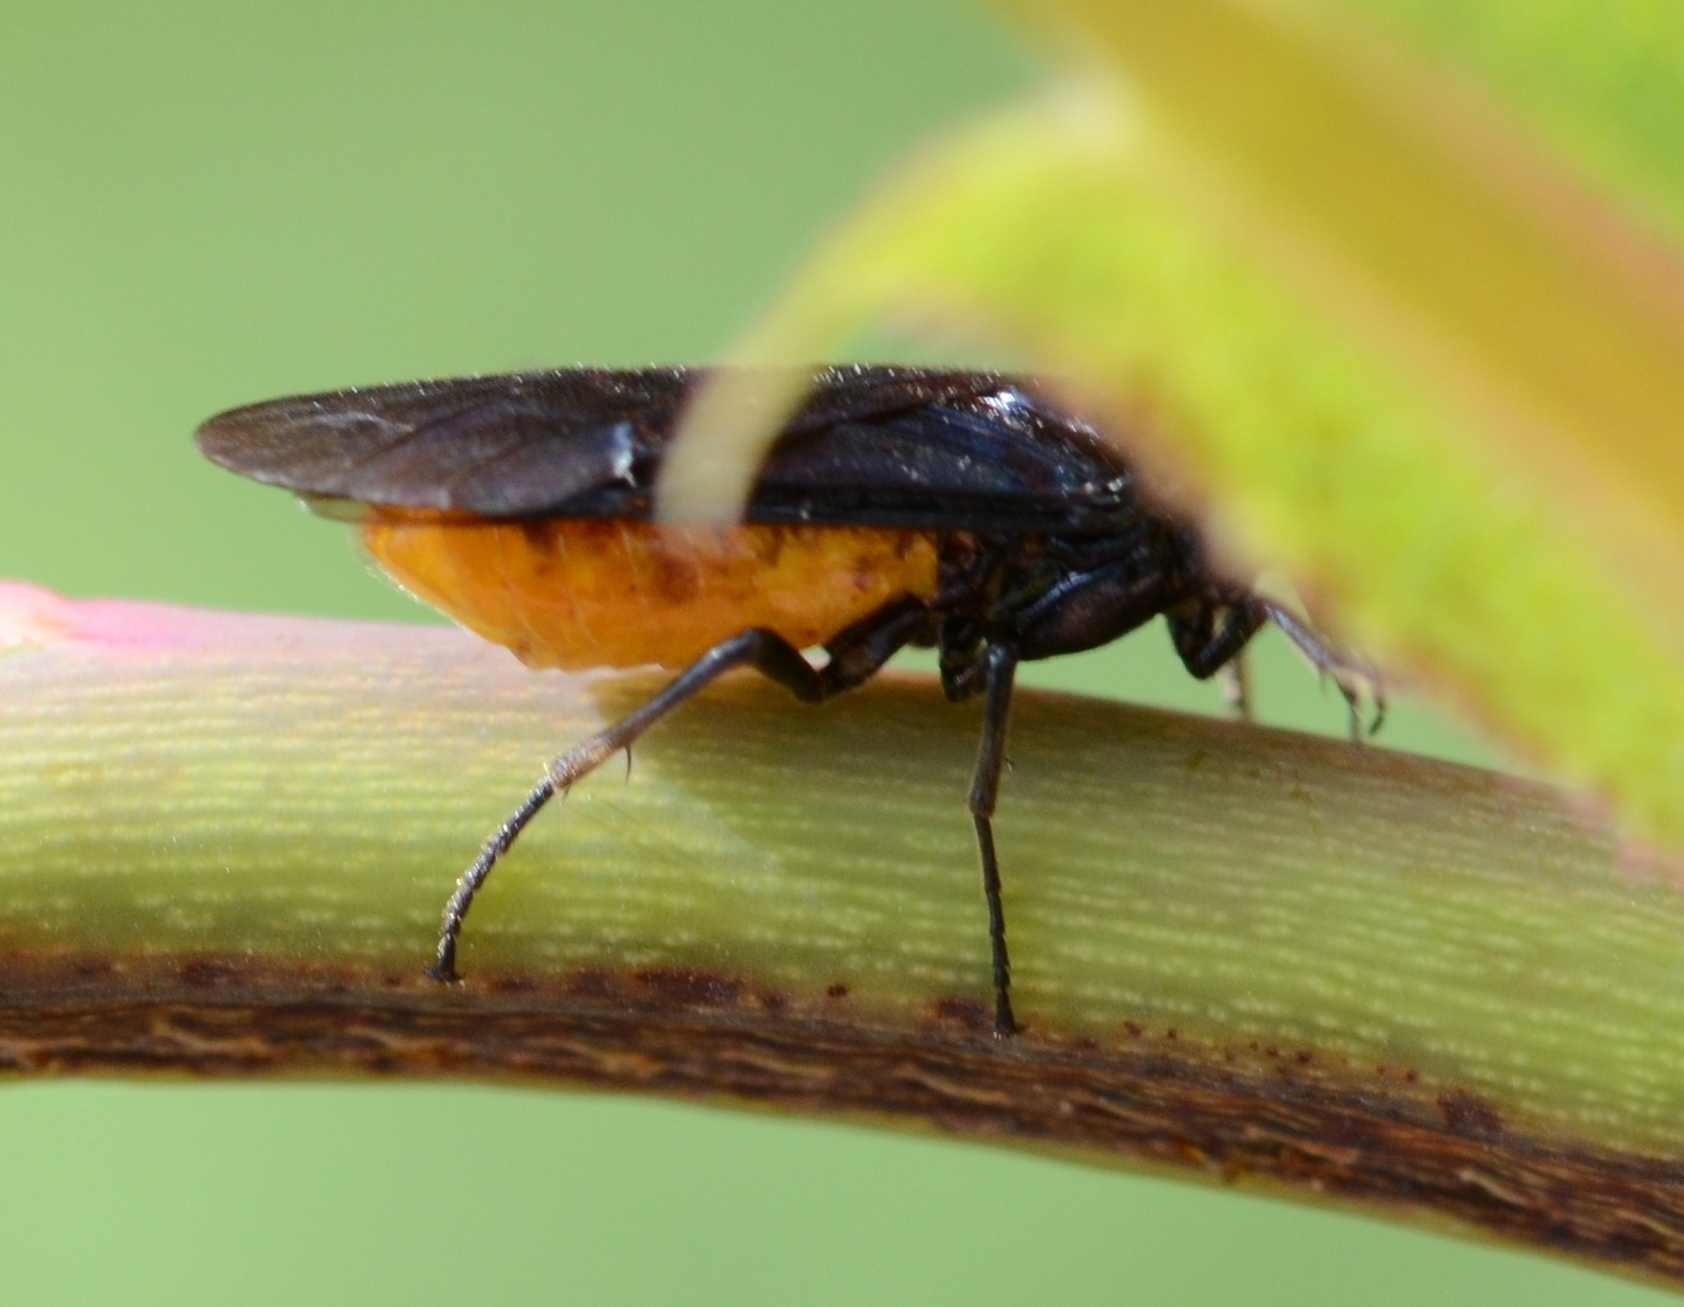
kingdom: Animalia
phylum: Arthropoda
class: Insecta
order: Hymenoptera
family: Argidae
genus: Arge
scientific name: Arge pagana
